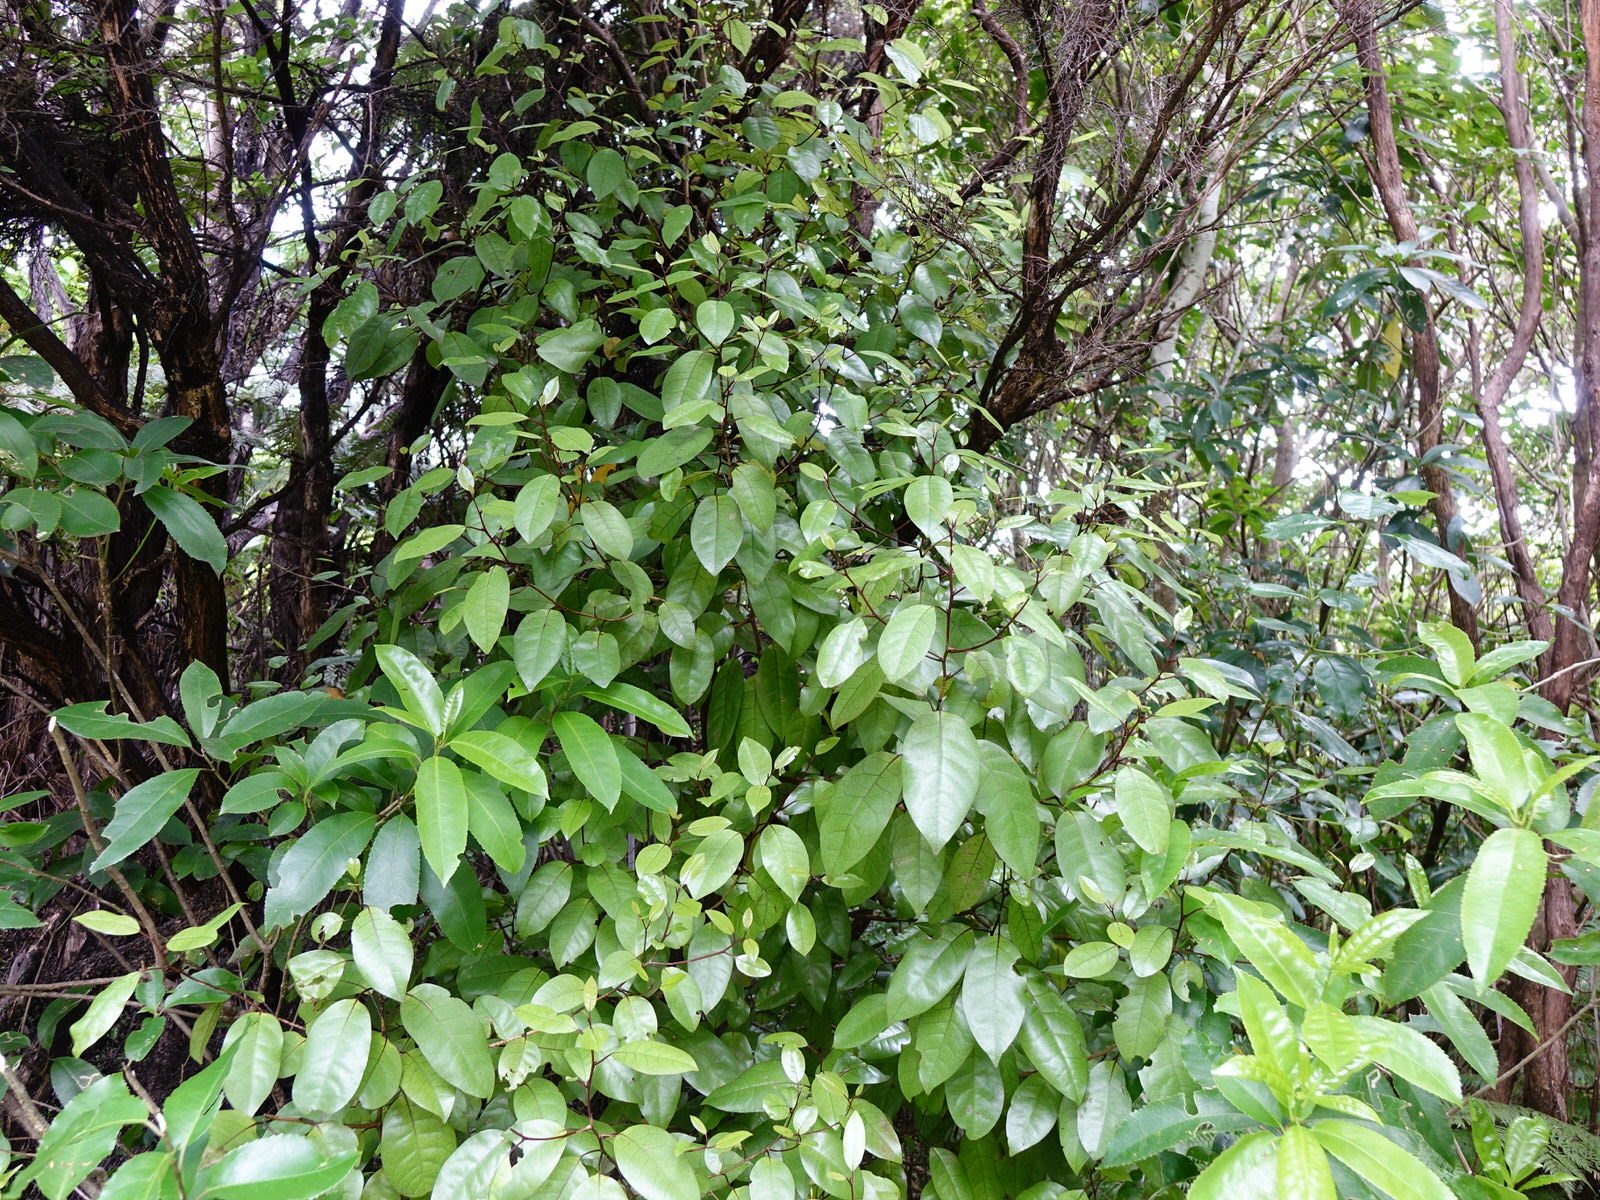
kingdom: Plantae
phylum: Tracheophyta
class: Magnoliopsida
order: Laurales
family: Lauraceae
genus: Litsea
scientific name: Litsea calicaris
